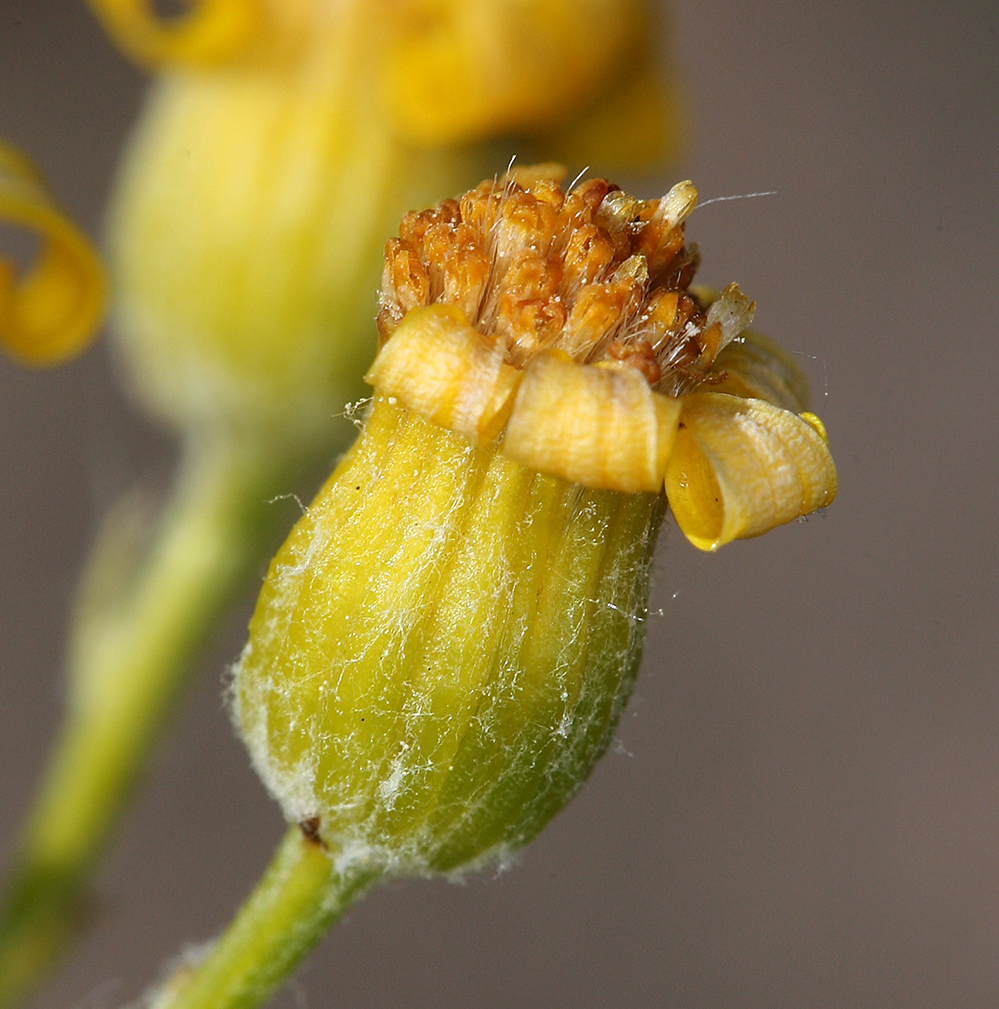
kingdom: Plantae
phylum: Tracheophyta
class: Magnoliopsida
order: Asterales
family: Asteraceae
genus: Packera
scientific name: Packera cana
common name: Woolly groundsel
